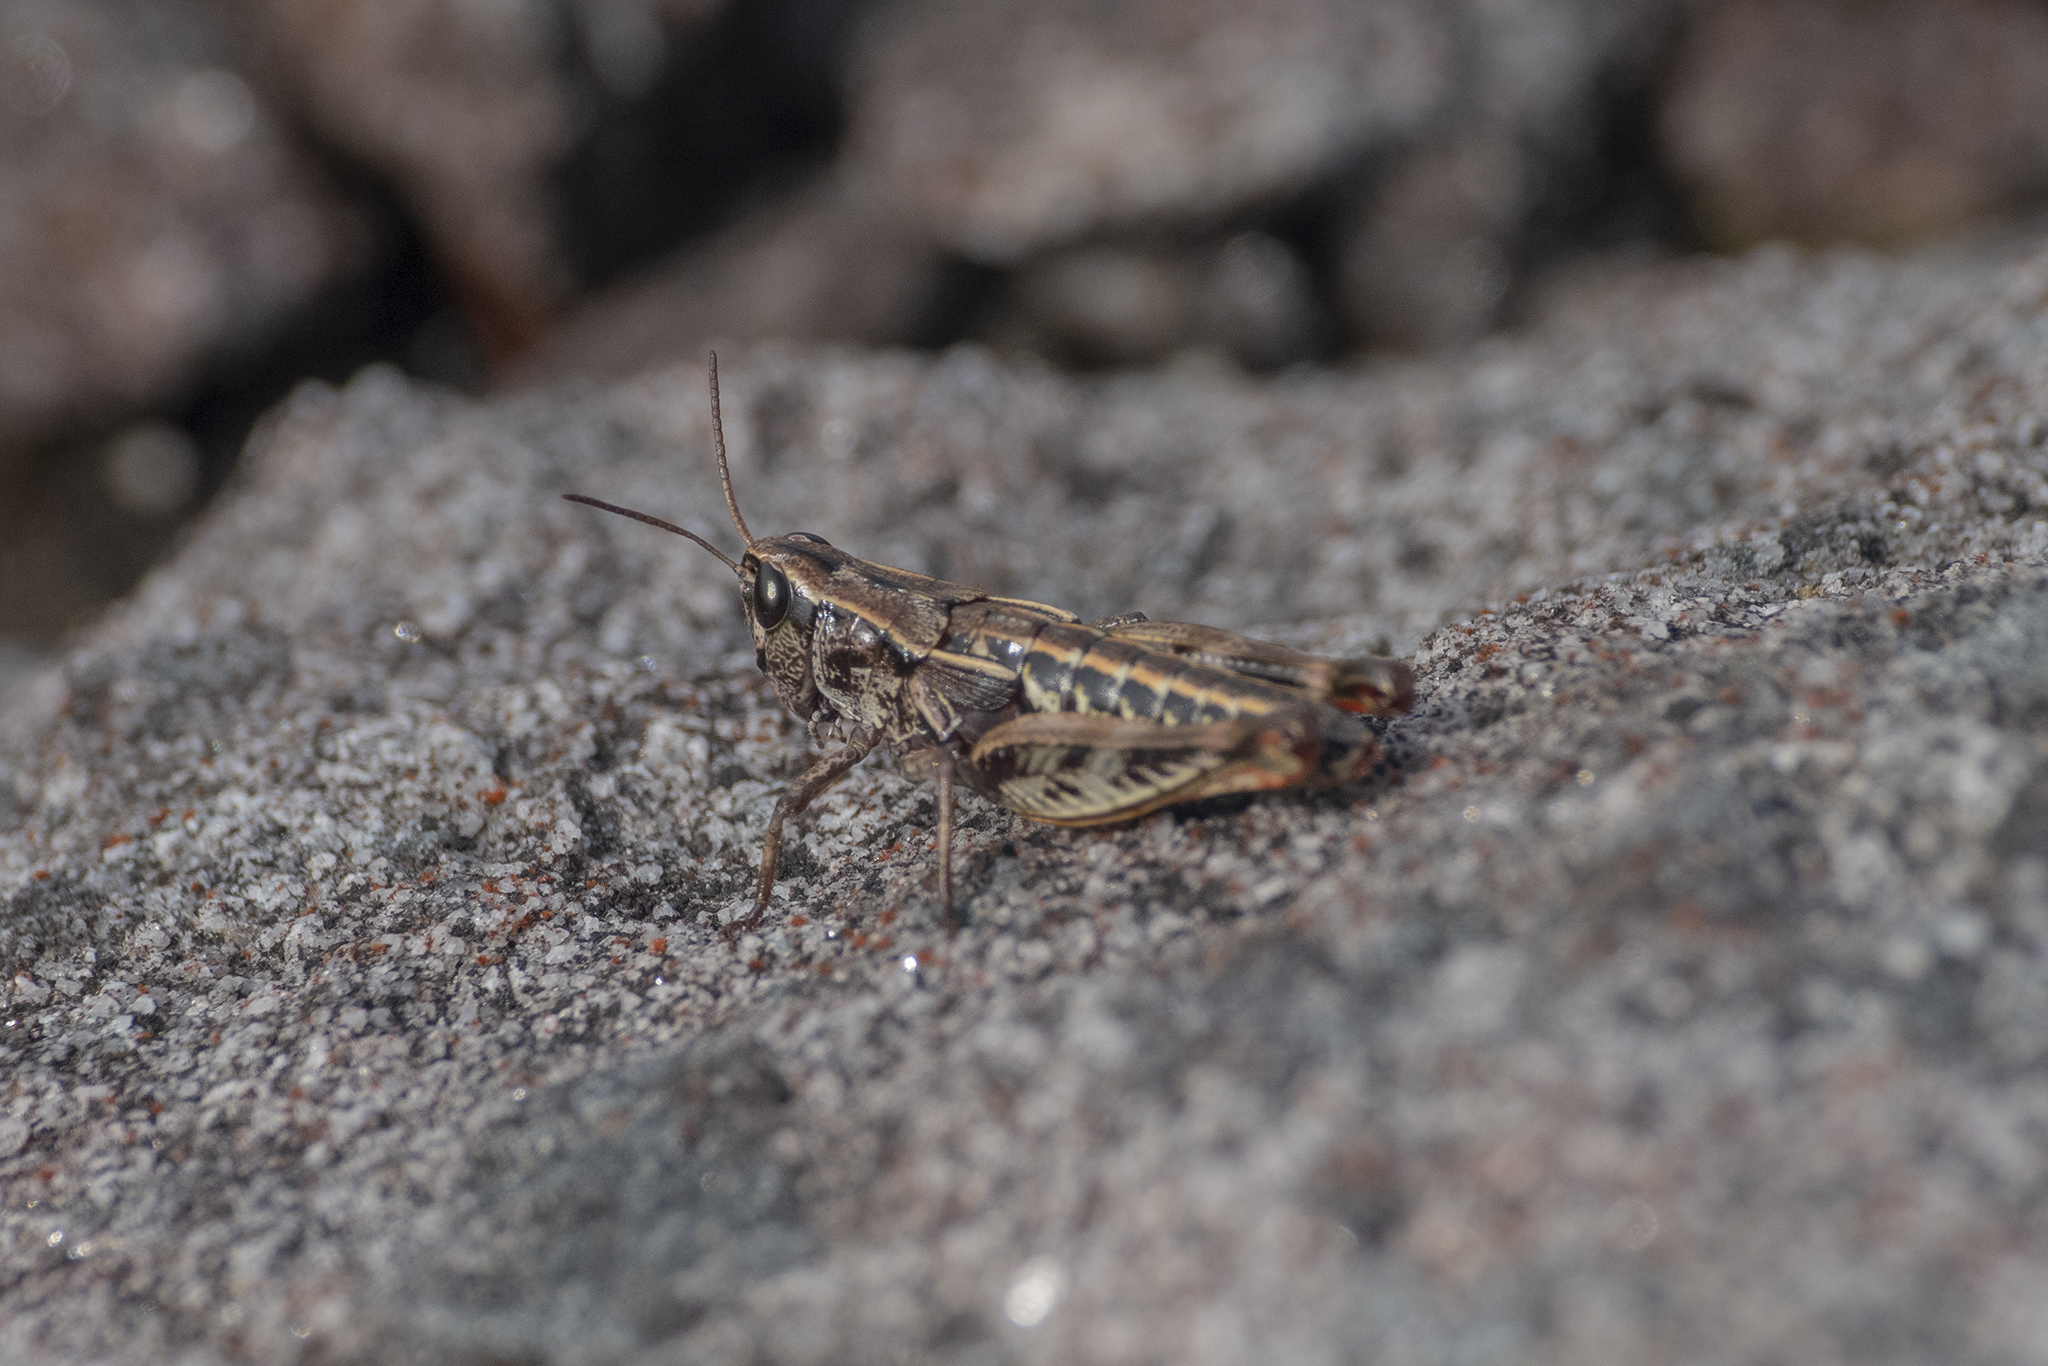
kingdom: Animalia
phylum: Arthropoda
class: Insecta
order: Orthoptera
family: Acrididae
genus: Sigaus
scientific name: Sigaus
